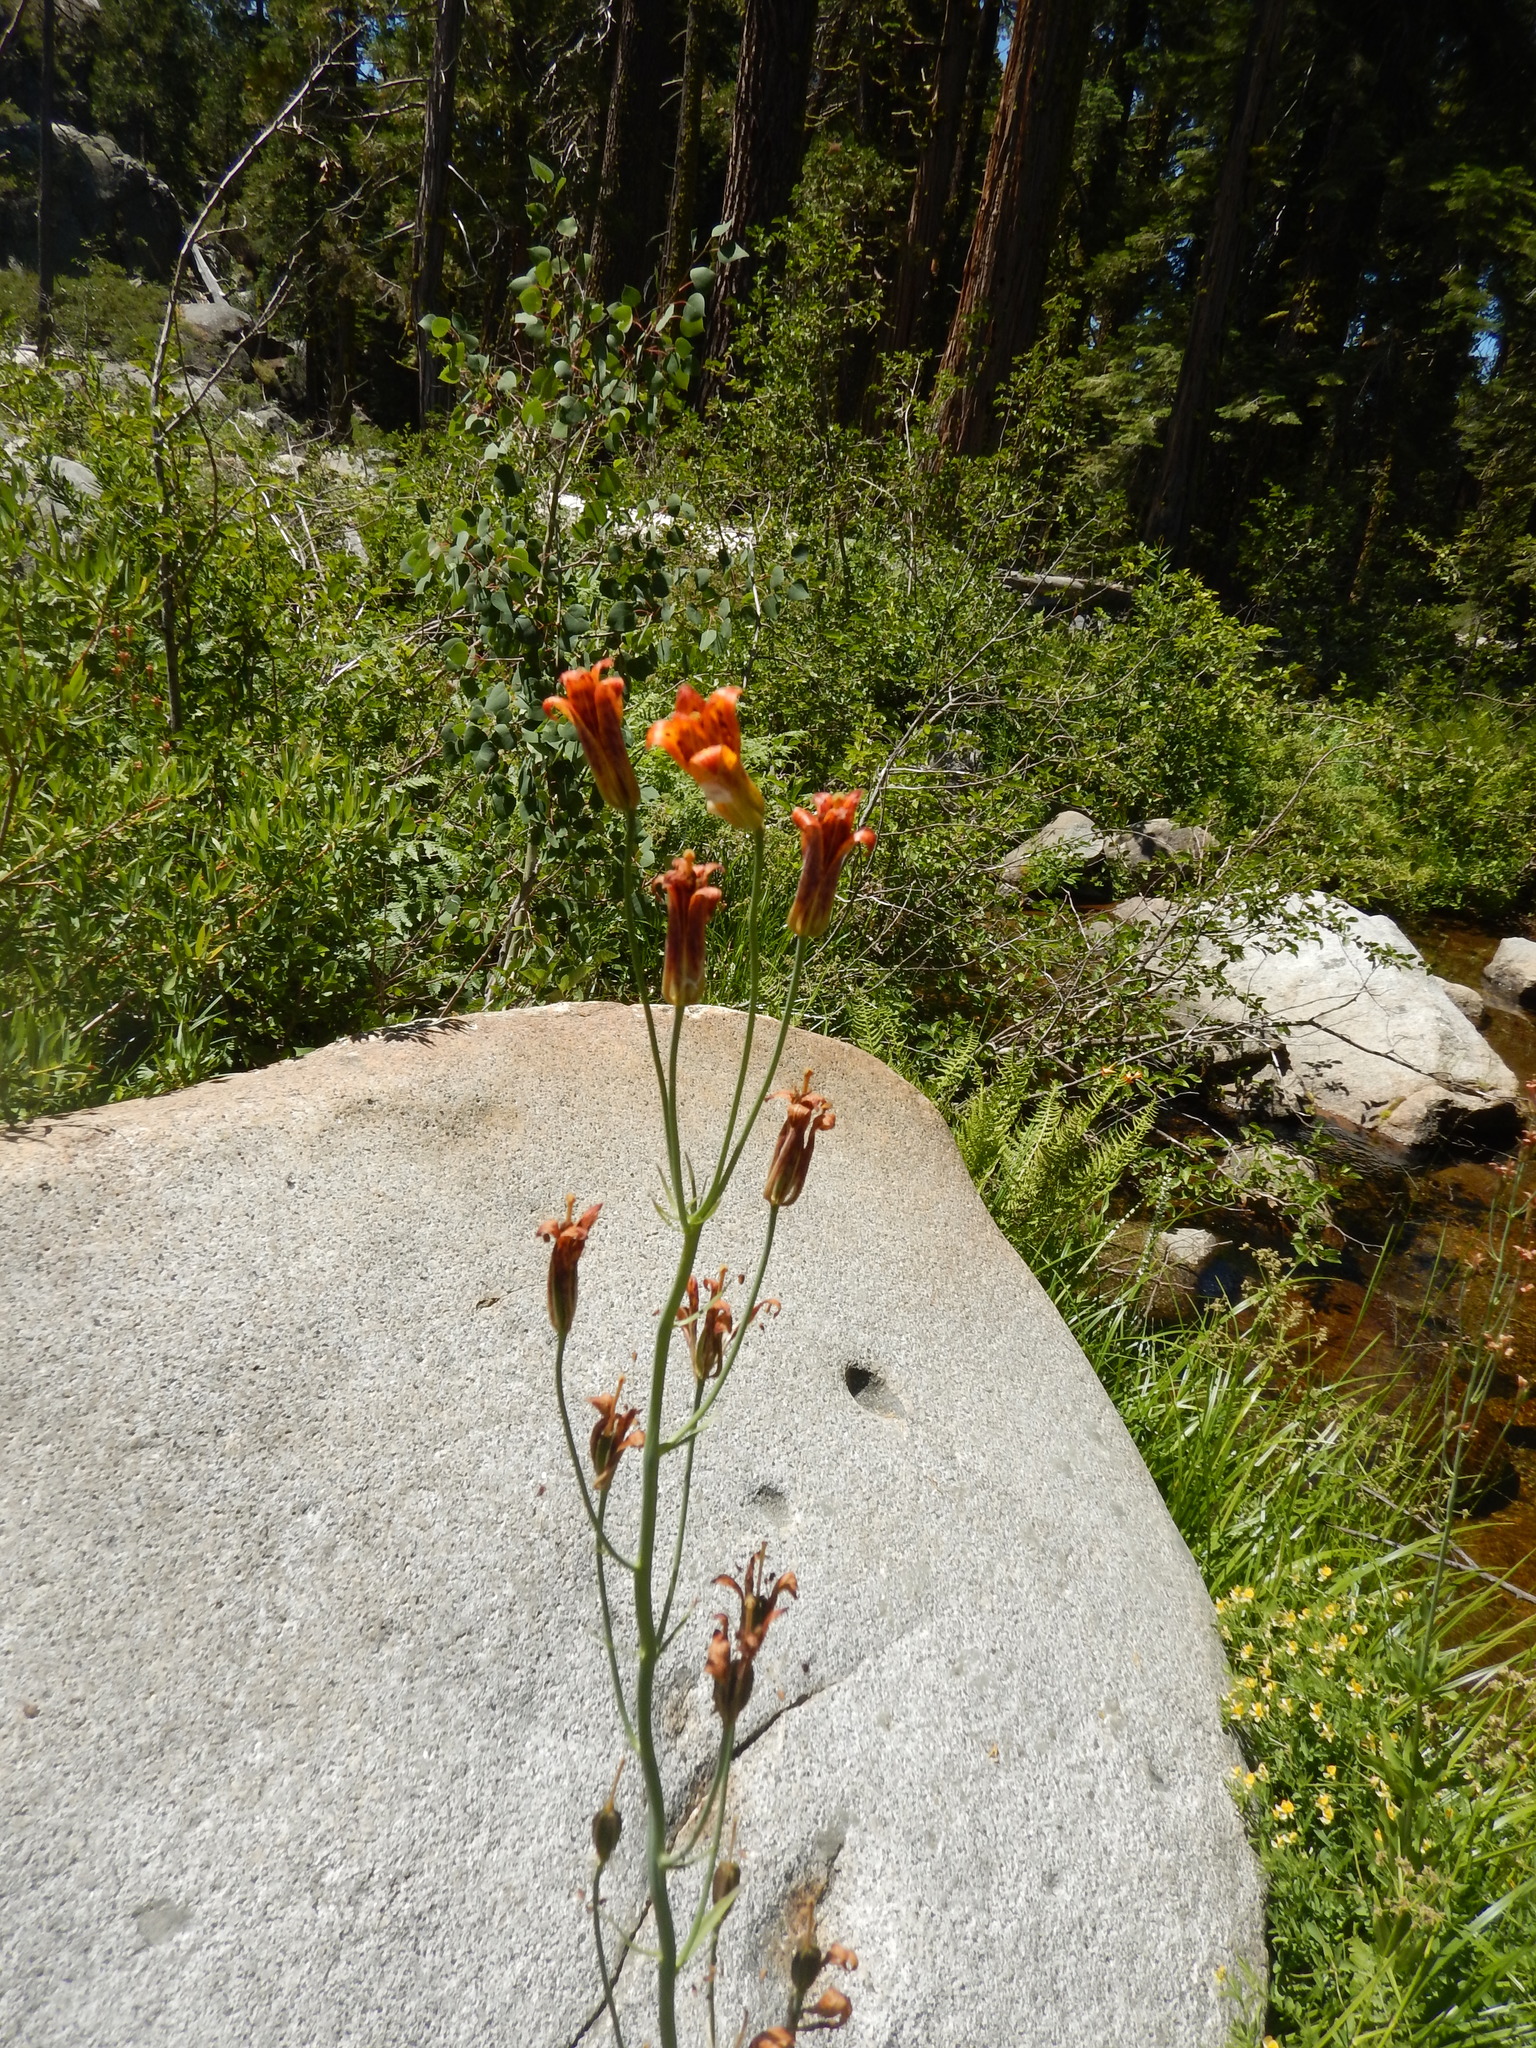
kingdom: Plantae
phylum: Tracheophyta
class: Liliopsida
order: Liliales
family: Liliaceae
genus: Lilium
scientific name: Lilium parvum
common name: Alpine lily
